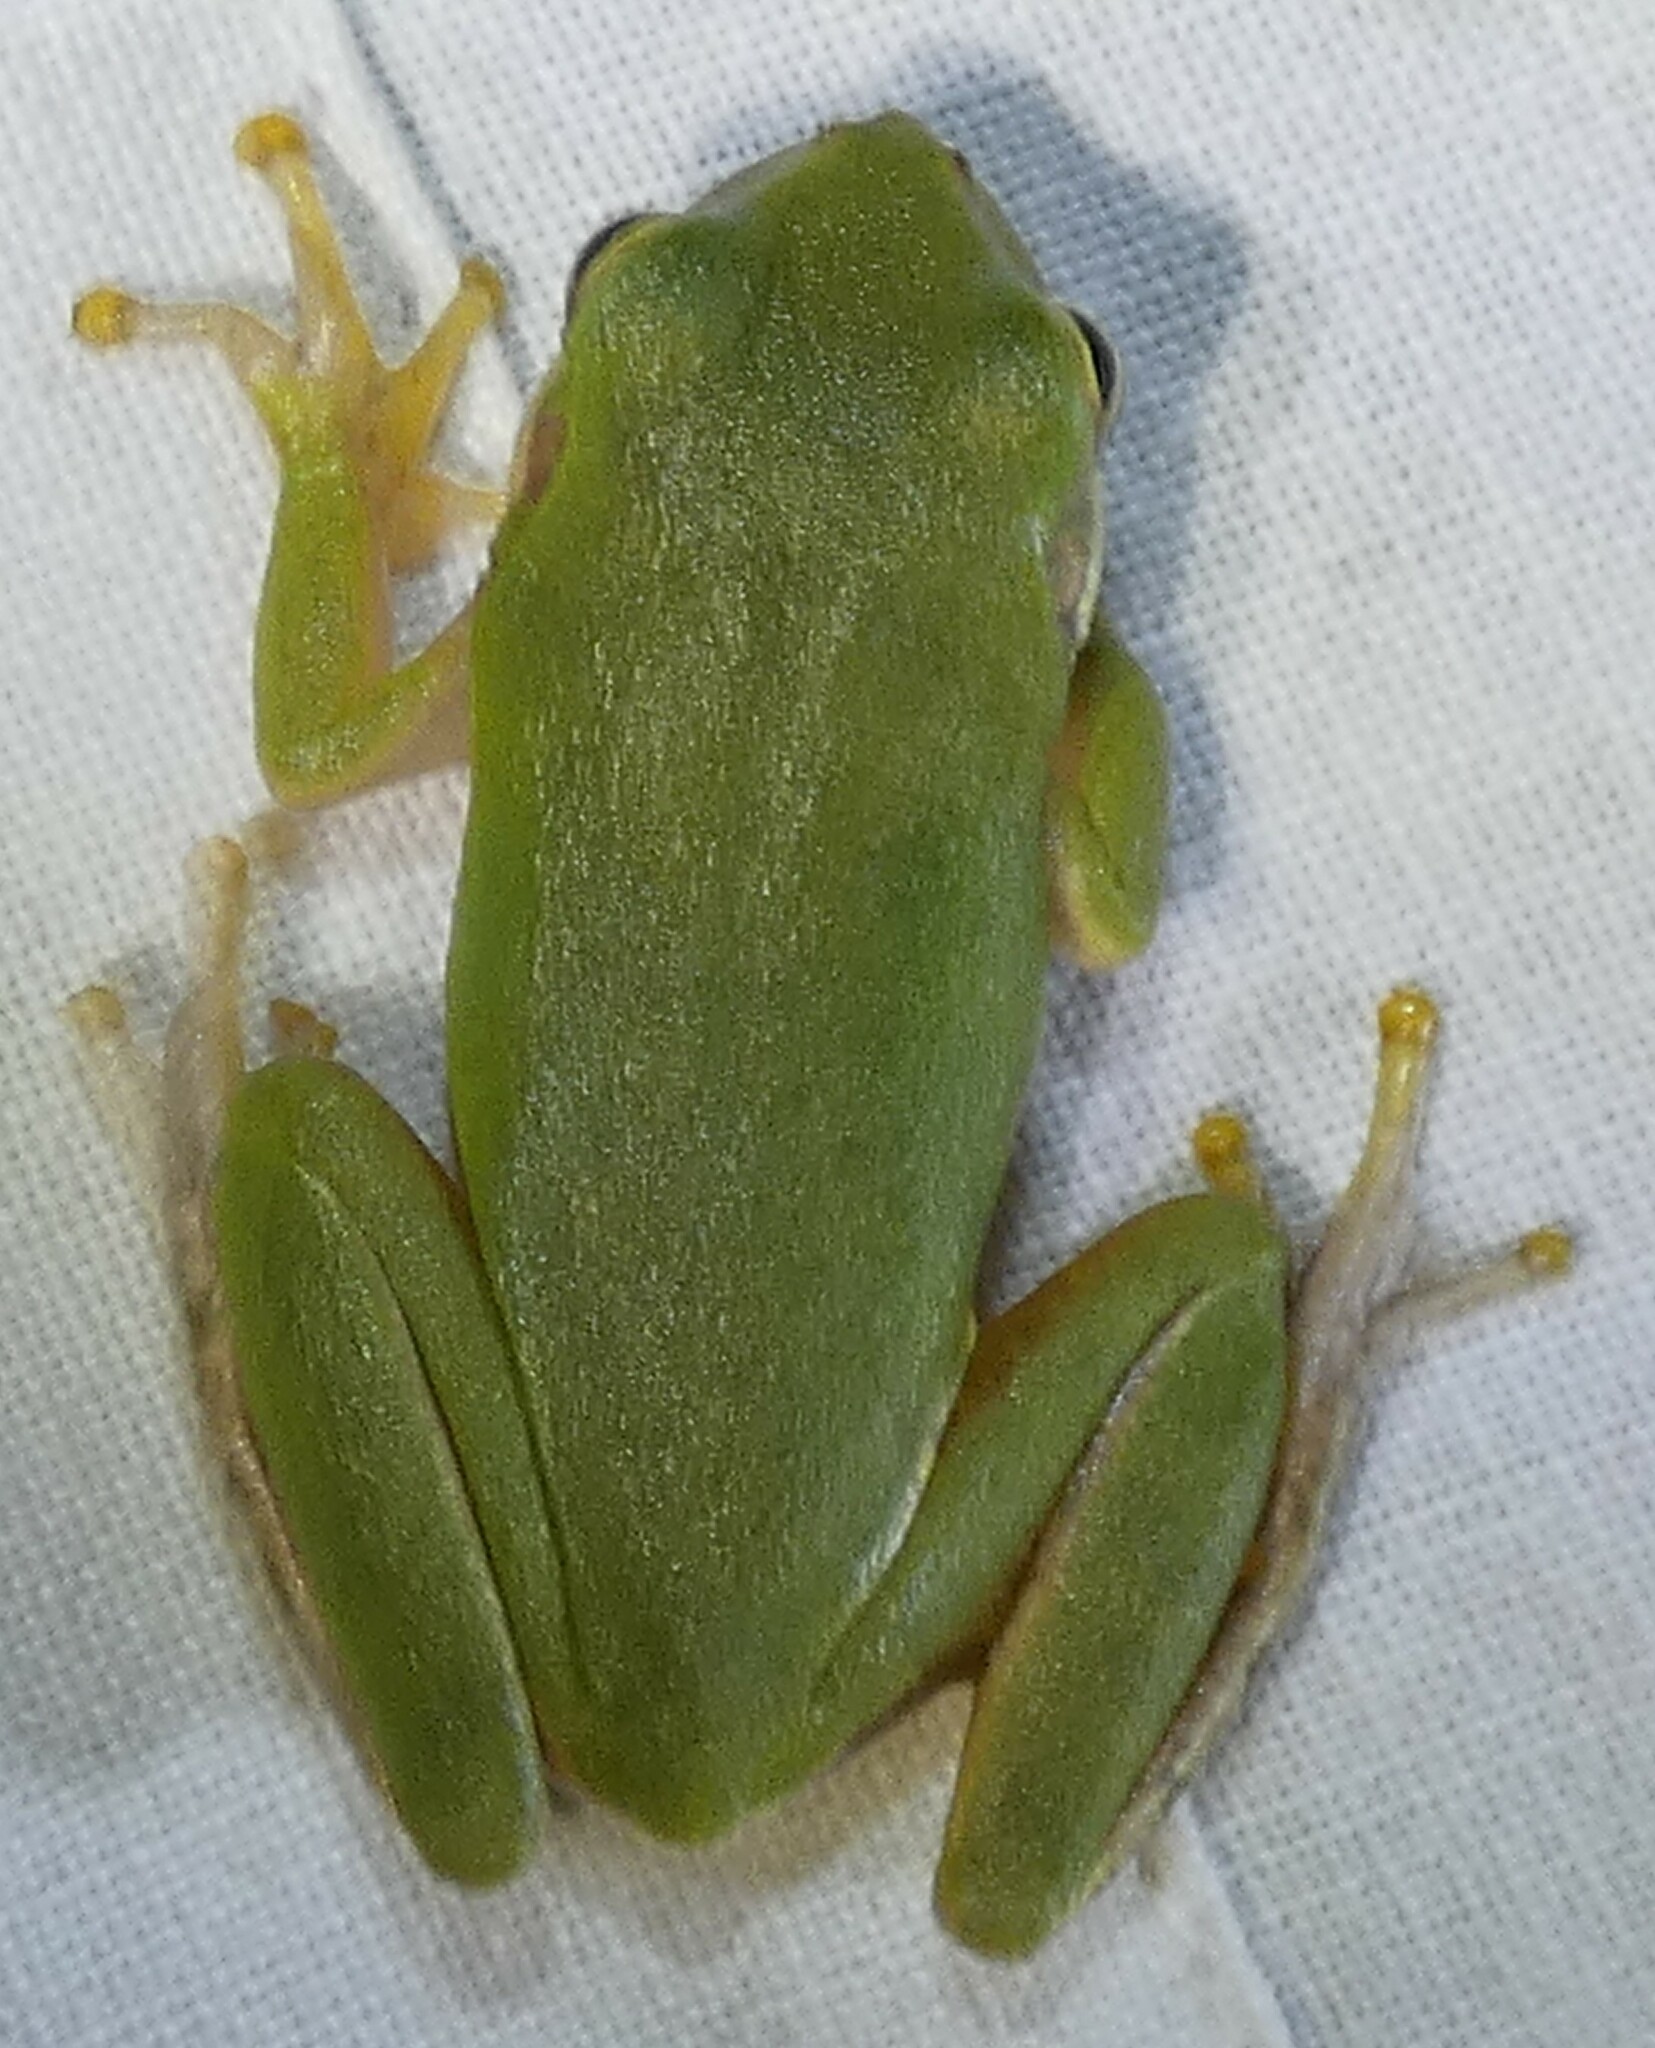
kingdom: Animalia
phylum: Chordata
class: Amphibia
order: Anura
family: Hylidae
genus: Dryophytes
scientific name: Dryophytes squirellus
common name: Squirrel treefrog
